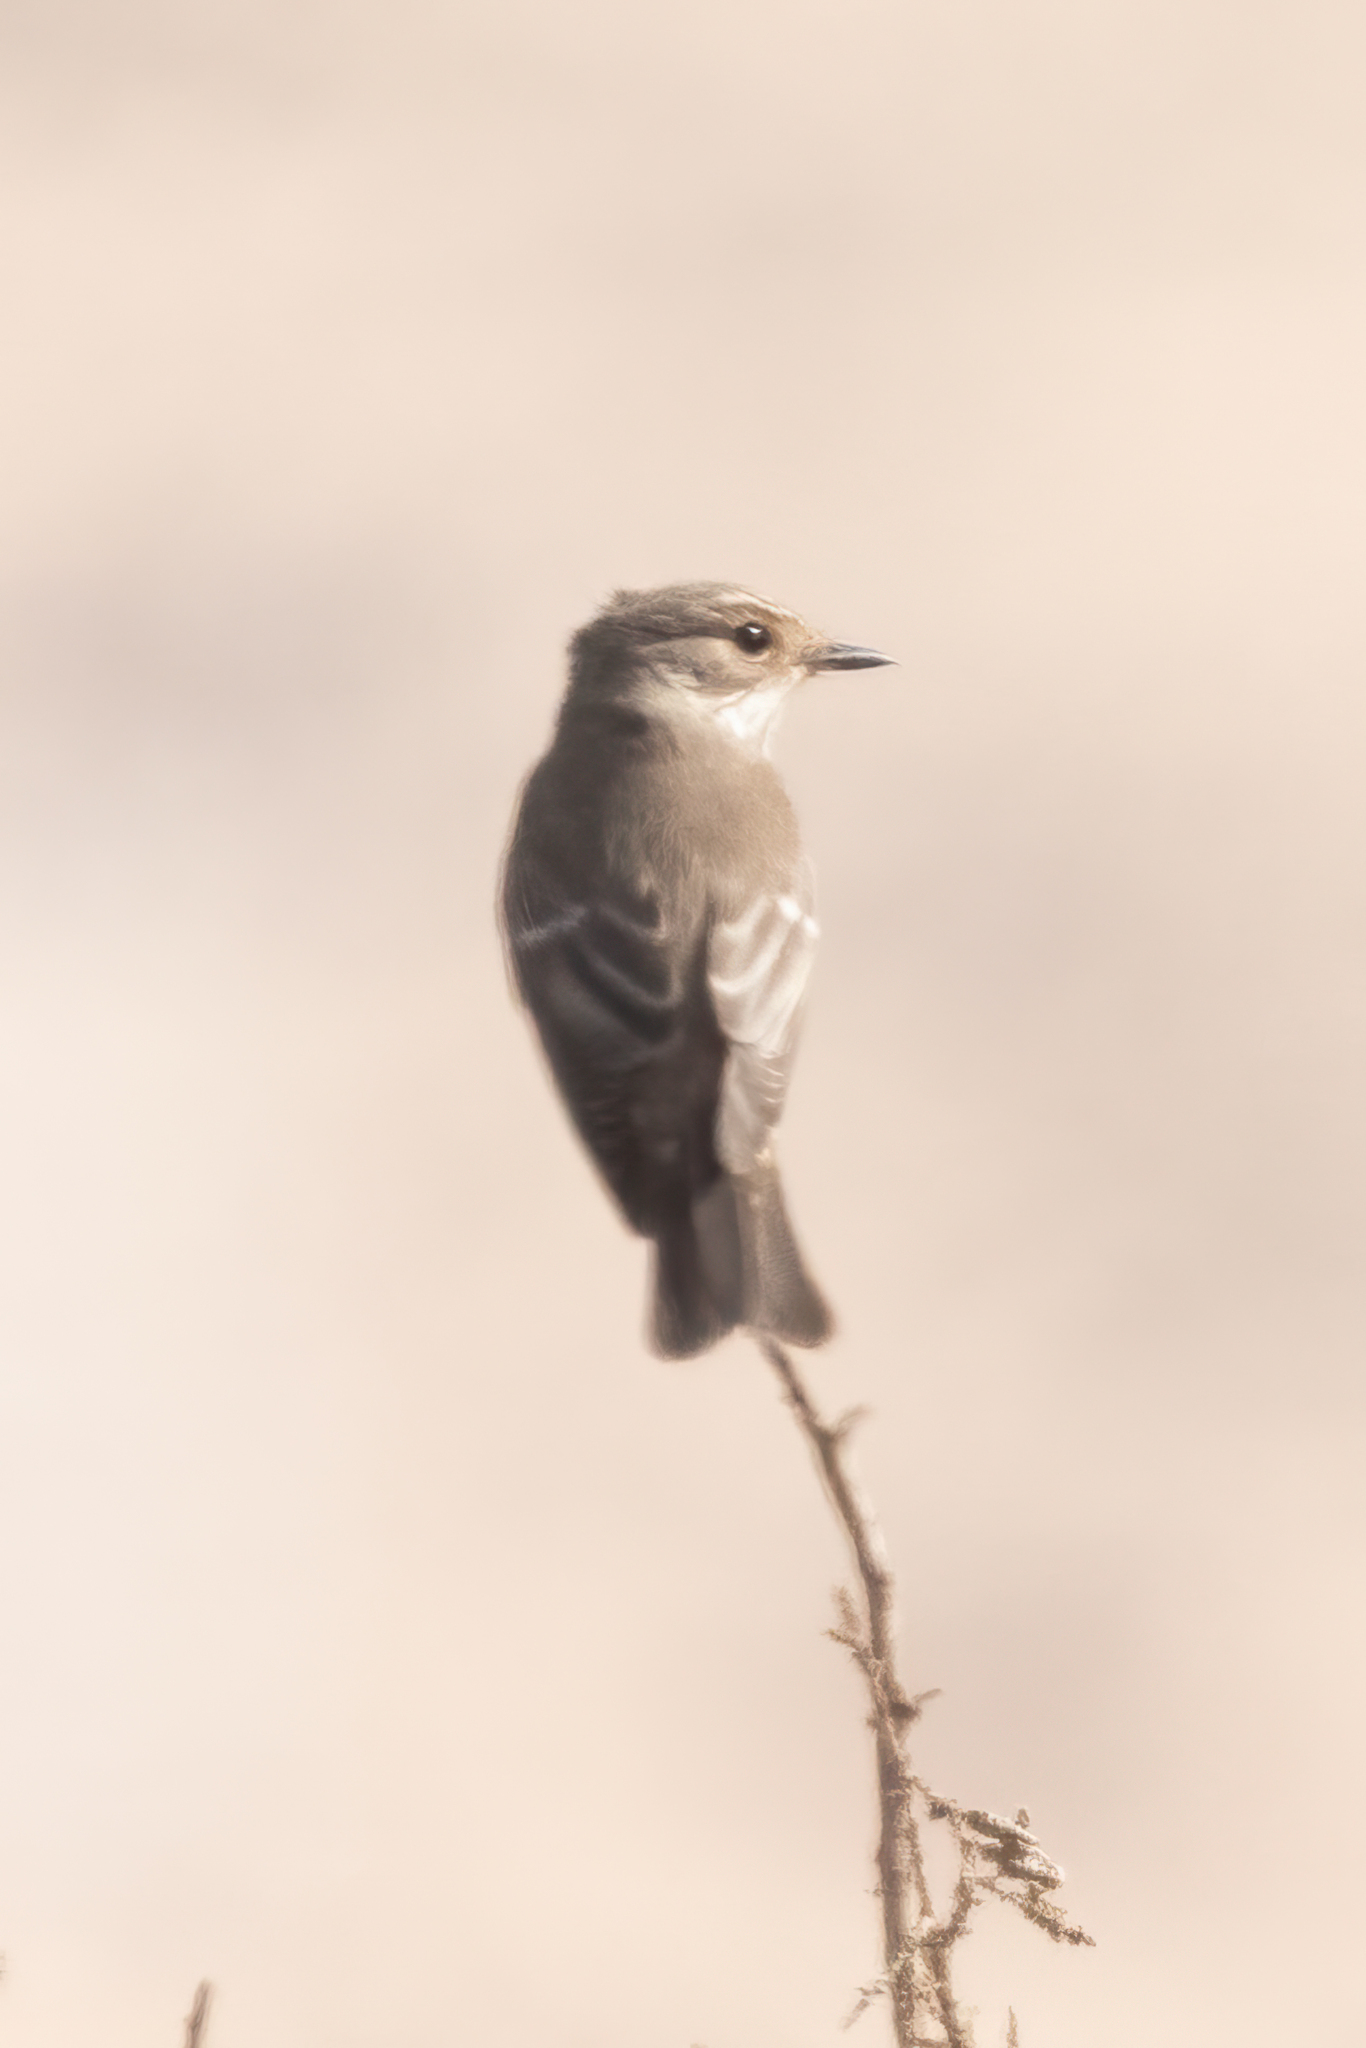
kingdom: Animalia
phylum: Chordata
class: Aves
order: Passeriformes
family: Muscicapidae
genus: Muscicapa
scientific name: Muscicapa striata
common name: Spotted flycatcher
